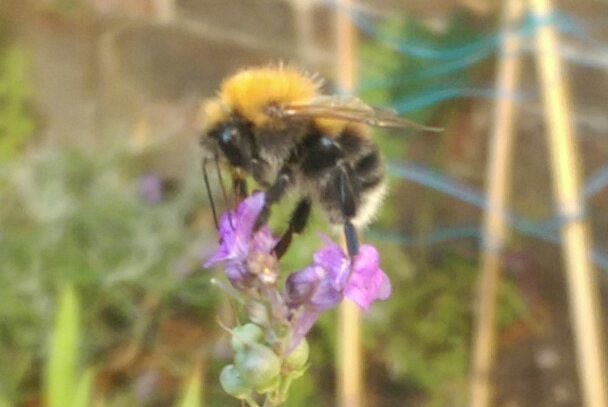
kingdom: Animalia
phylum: Arthropoda
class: Insecta
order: Hymenoptera
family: Apidae
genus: Bombus
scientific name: Bombus hypnorum
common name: New garden bumblebee
